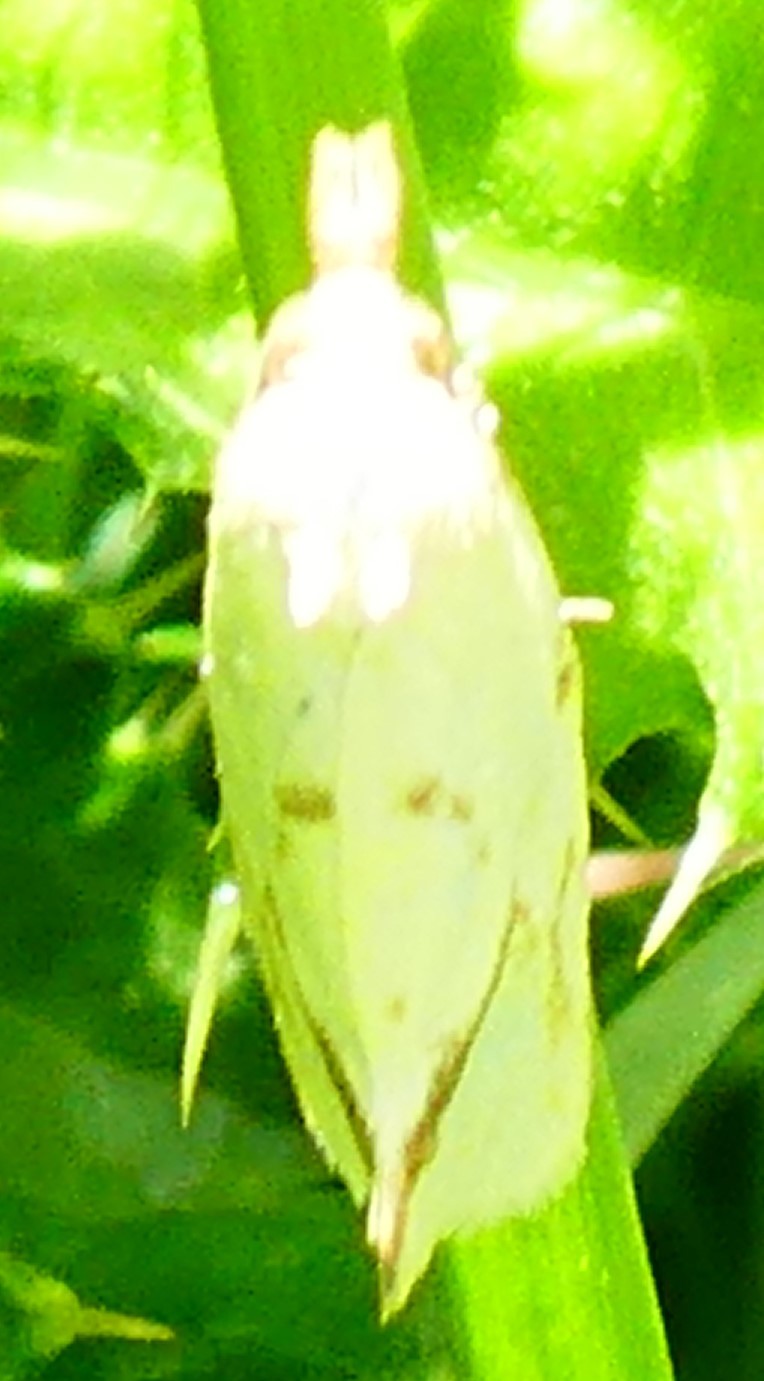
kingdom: Animalia
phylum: Arthropoda
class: Insecta
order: Lepidoptera
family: Tortricidae
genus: Agapeta
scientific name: Agapeta hamana
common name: Common yellow conch
